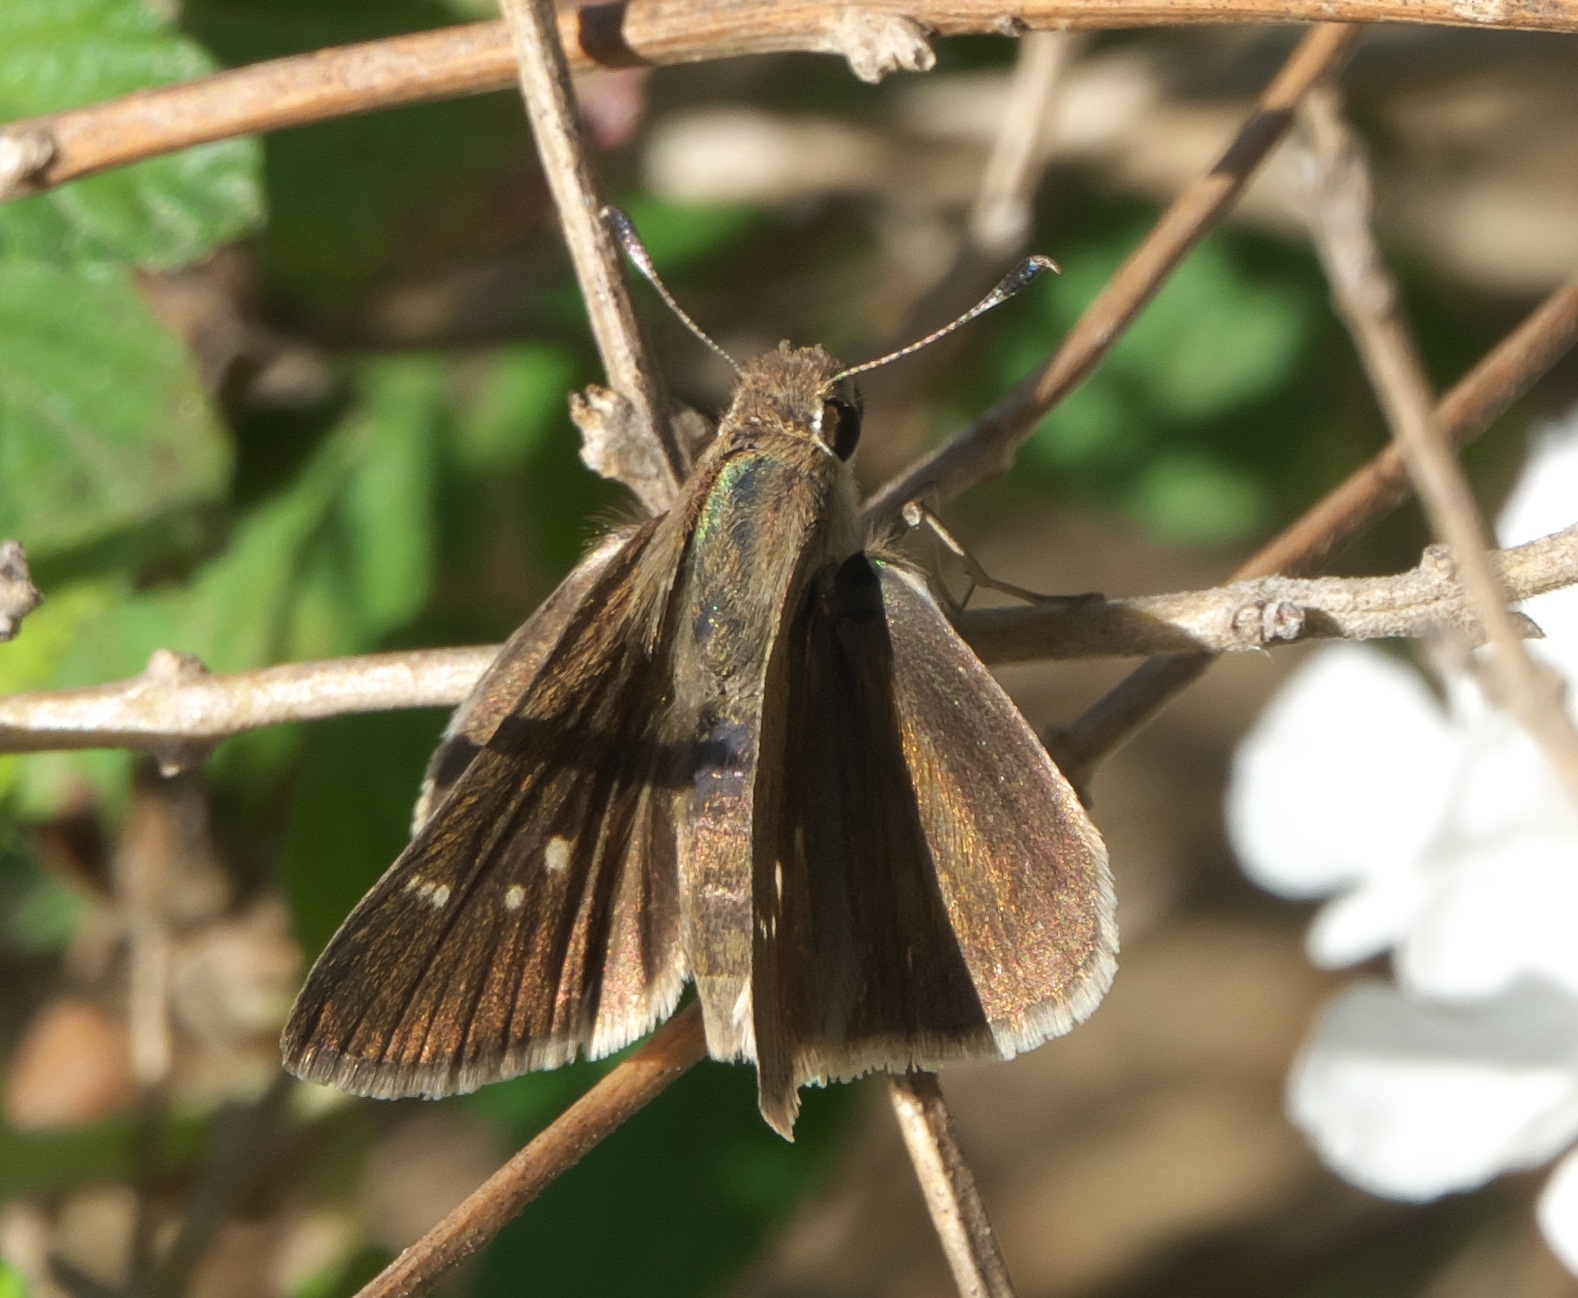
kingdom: Animalia
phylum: Arthropoda
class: Insecta
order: Lepidoptera
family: Hesperiidae
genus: Lerodea
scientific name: Lerodea eufala
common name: Eufala skipper
